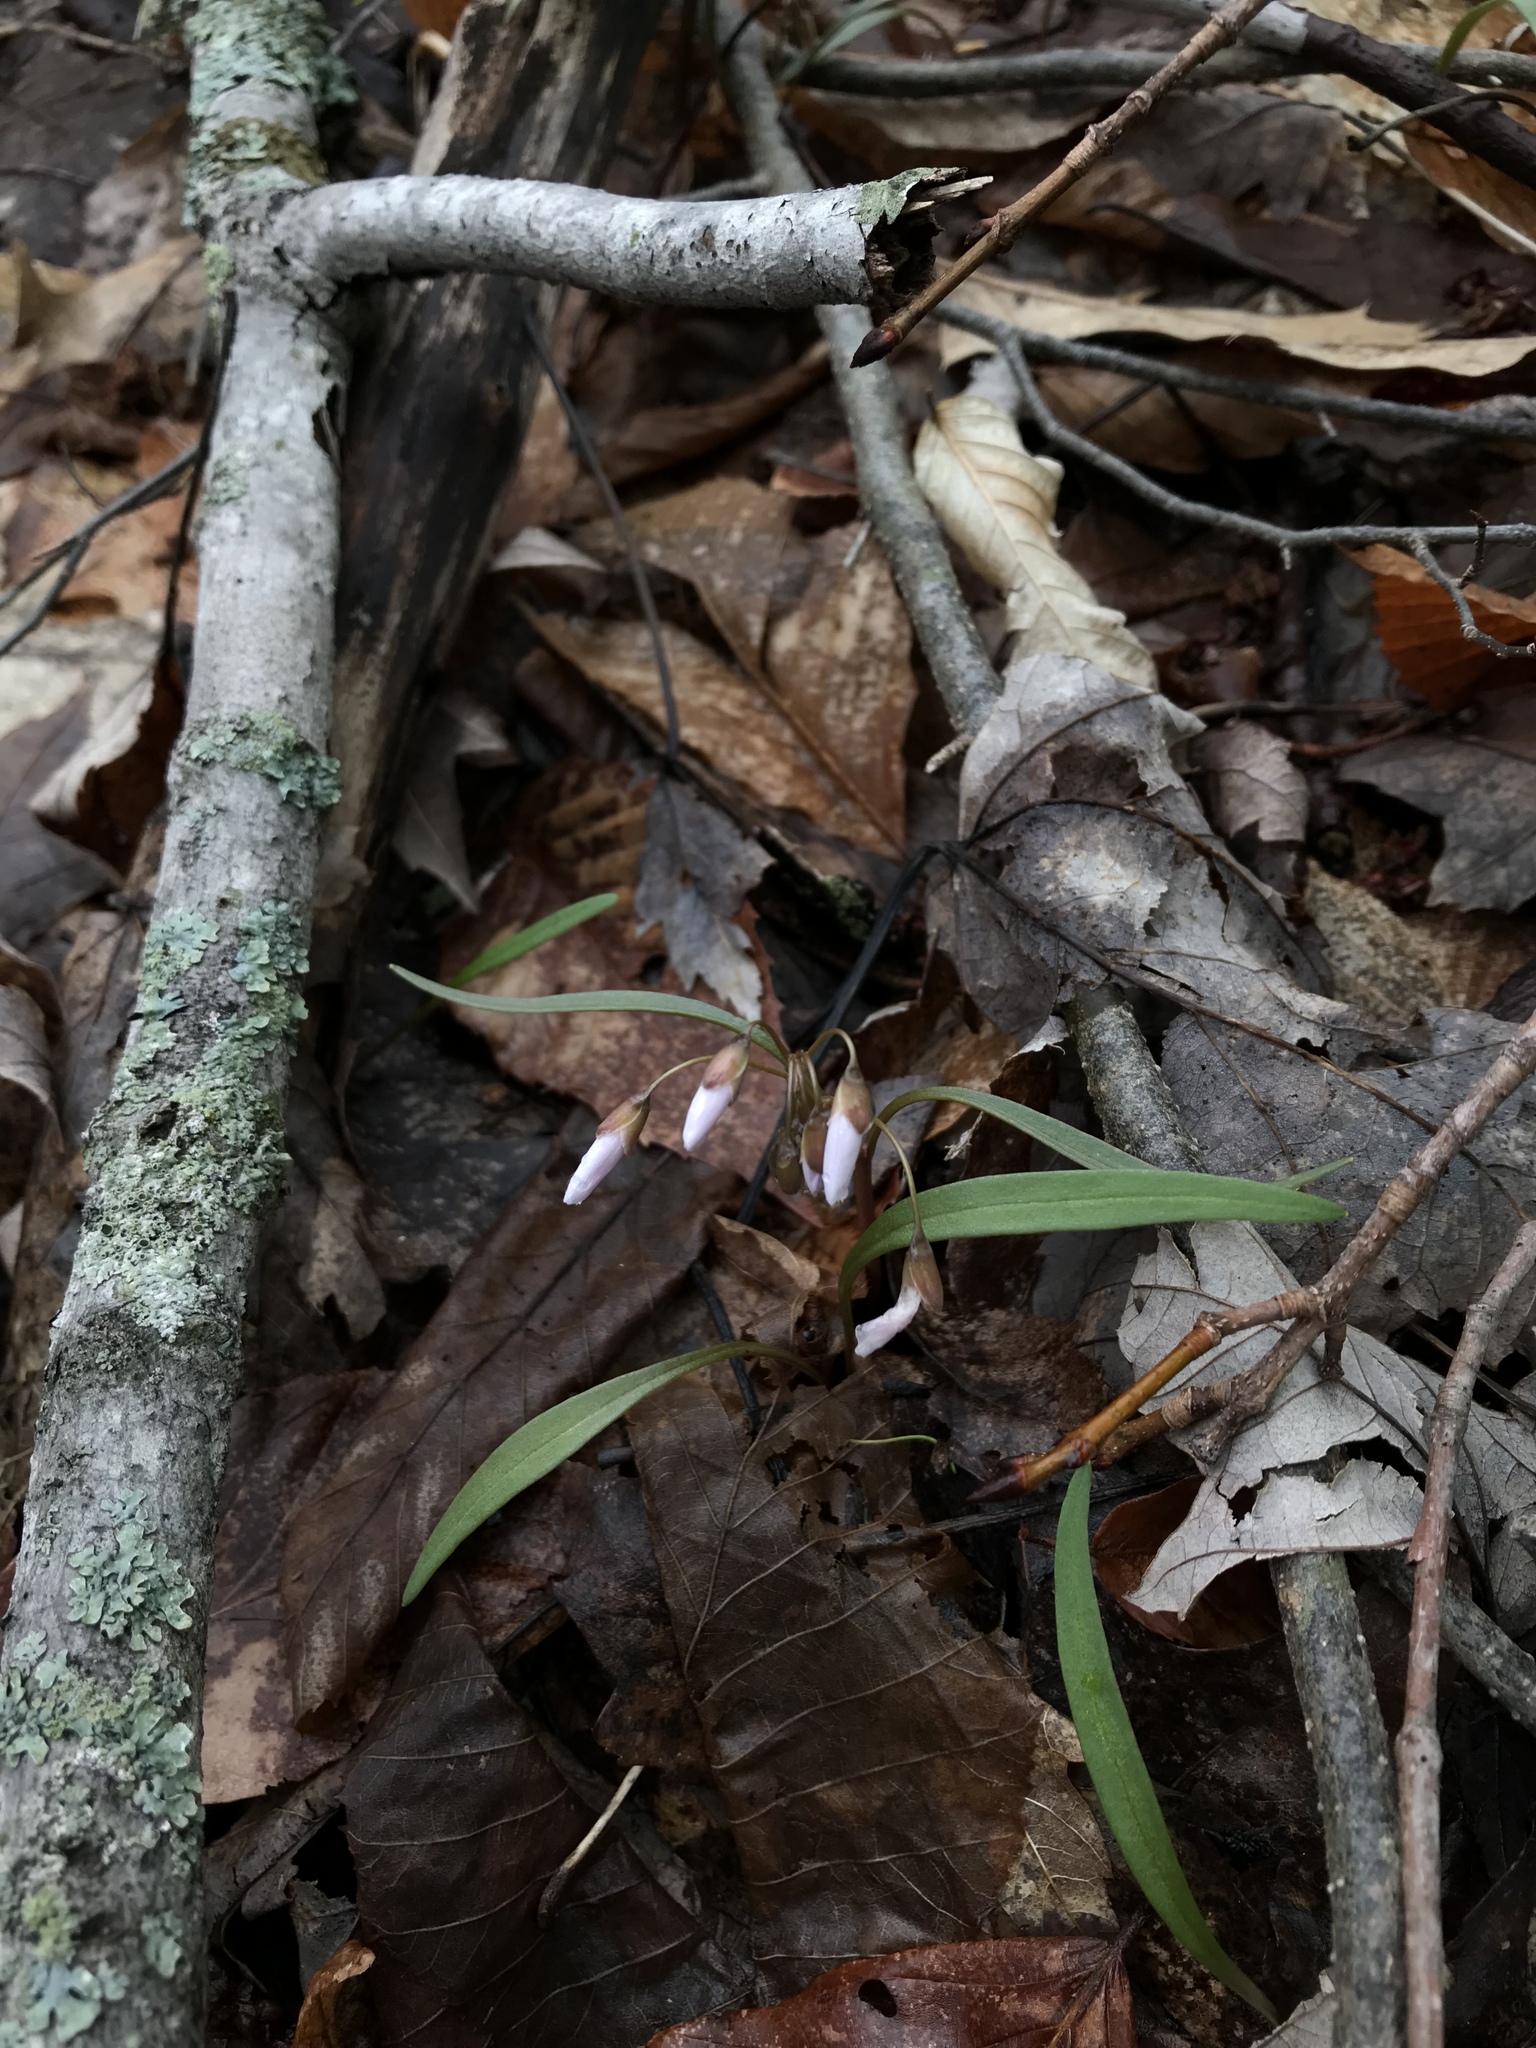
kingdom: Plantae
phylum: Tracheophyta
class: Magnoliopsida
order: Caryophyllales
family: Montiaceae
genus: Claytonia
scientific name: Claytonia virginica
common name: Virginia springbeauty
